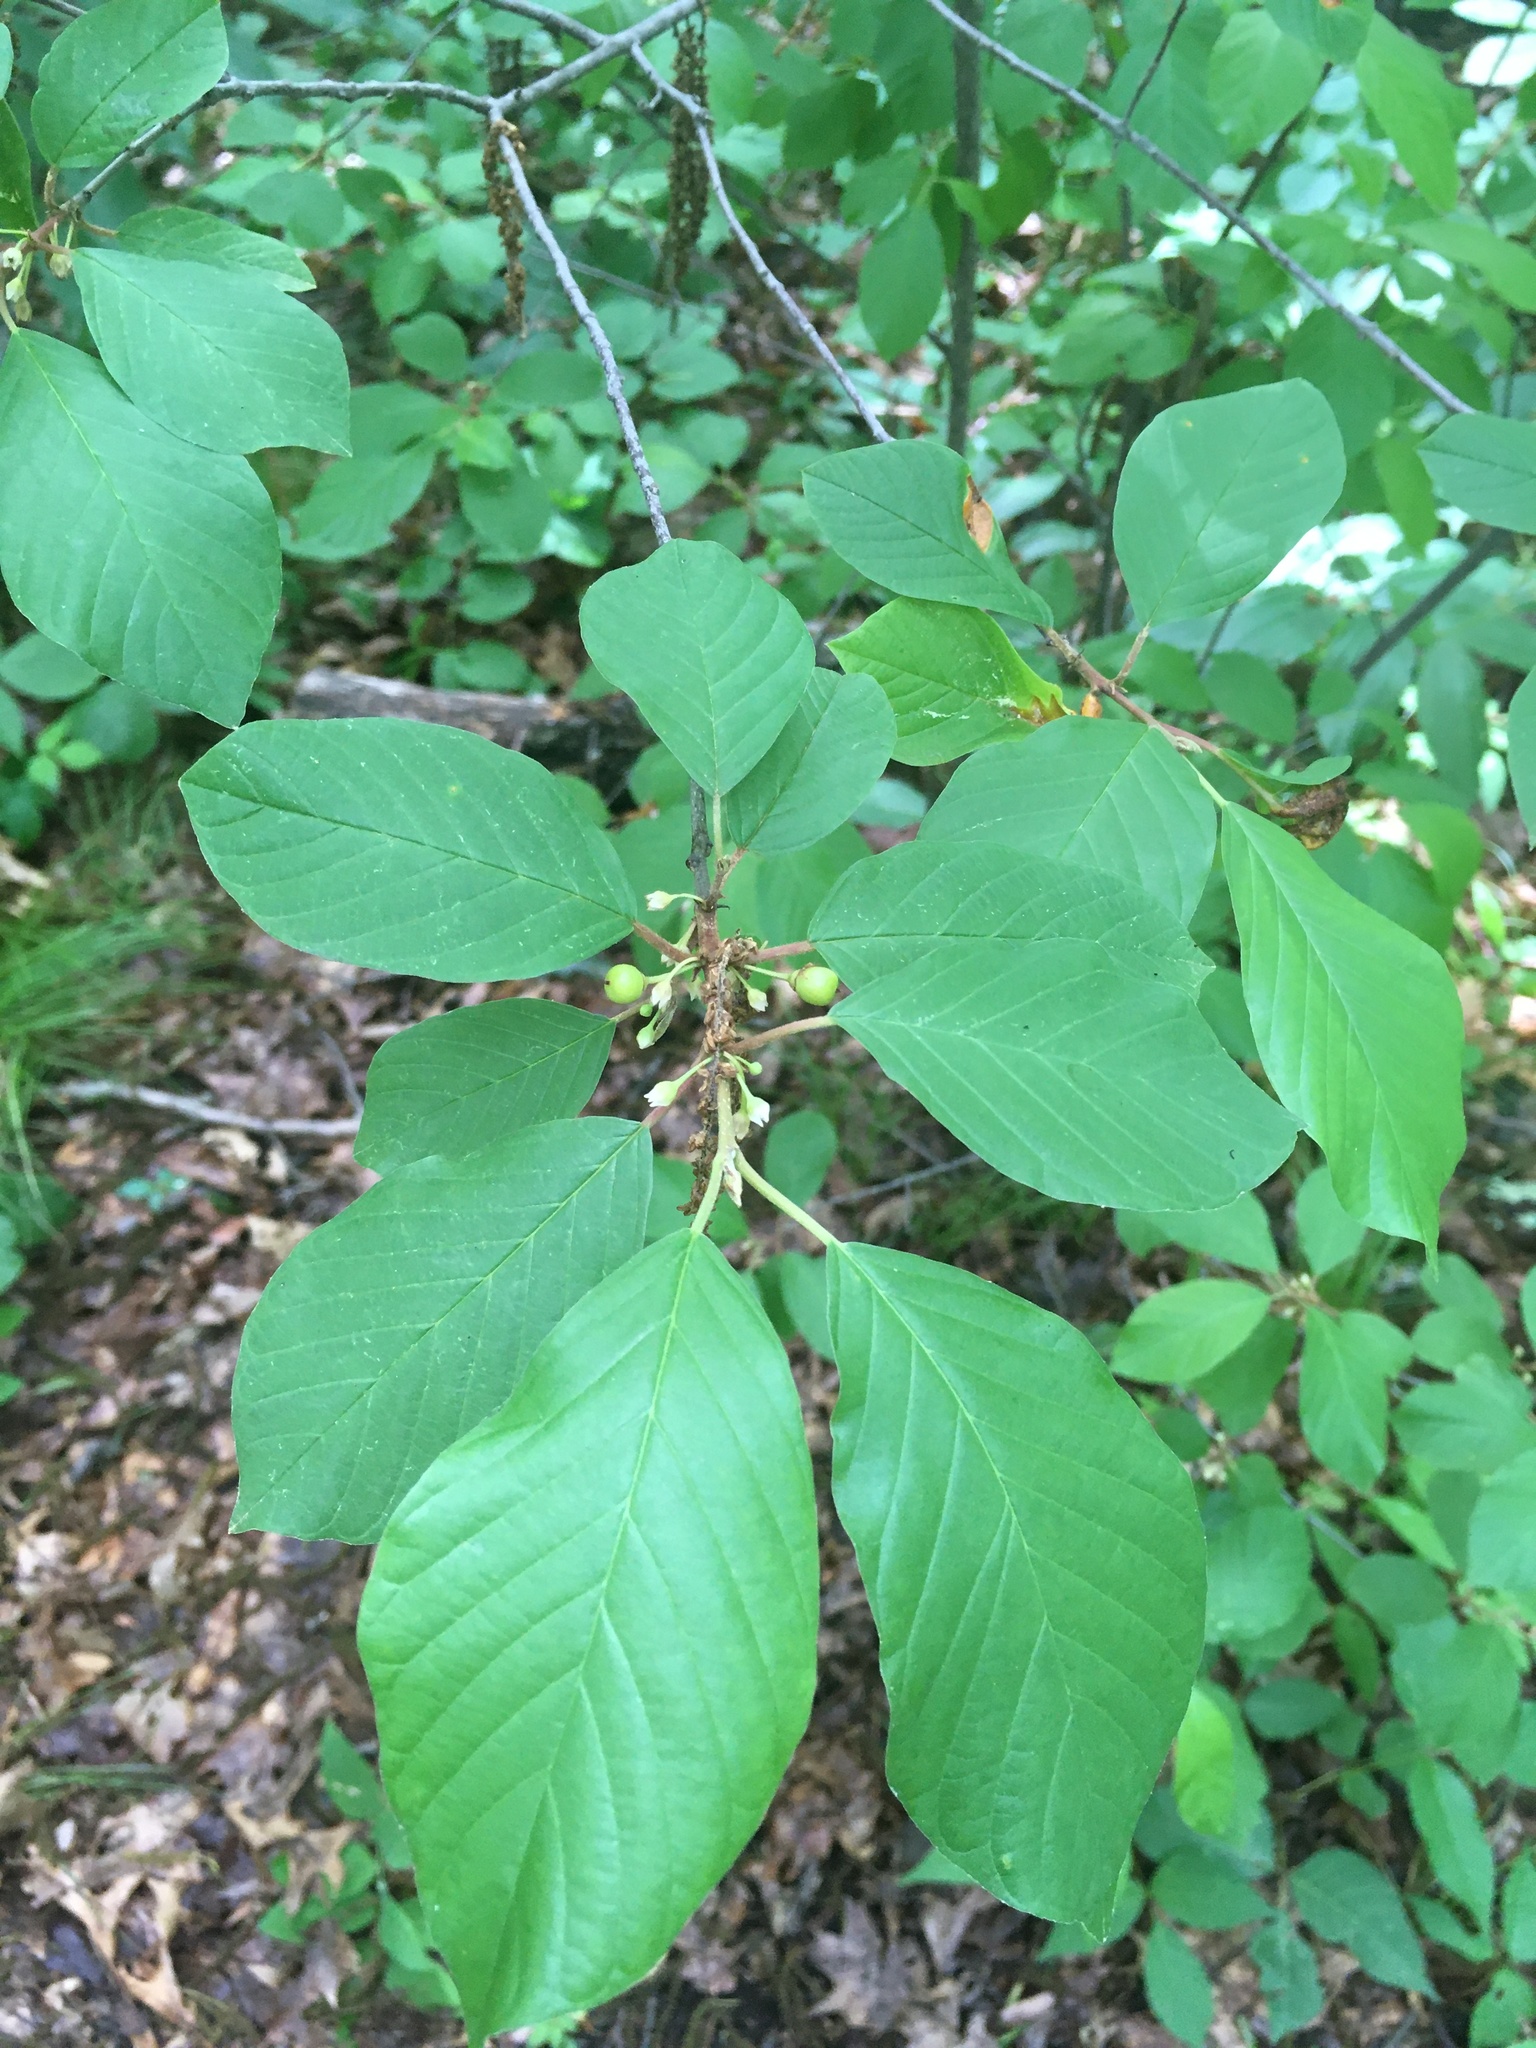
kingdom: Plantae
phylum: Tracheophyta
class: Magnoliopsida
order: Rosales
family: Rhamnaceae
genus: Frangula
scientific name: Frangula alnus
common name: Alder buckthorn
